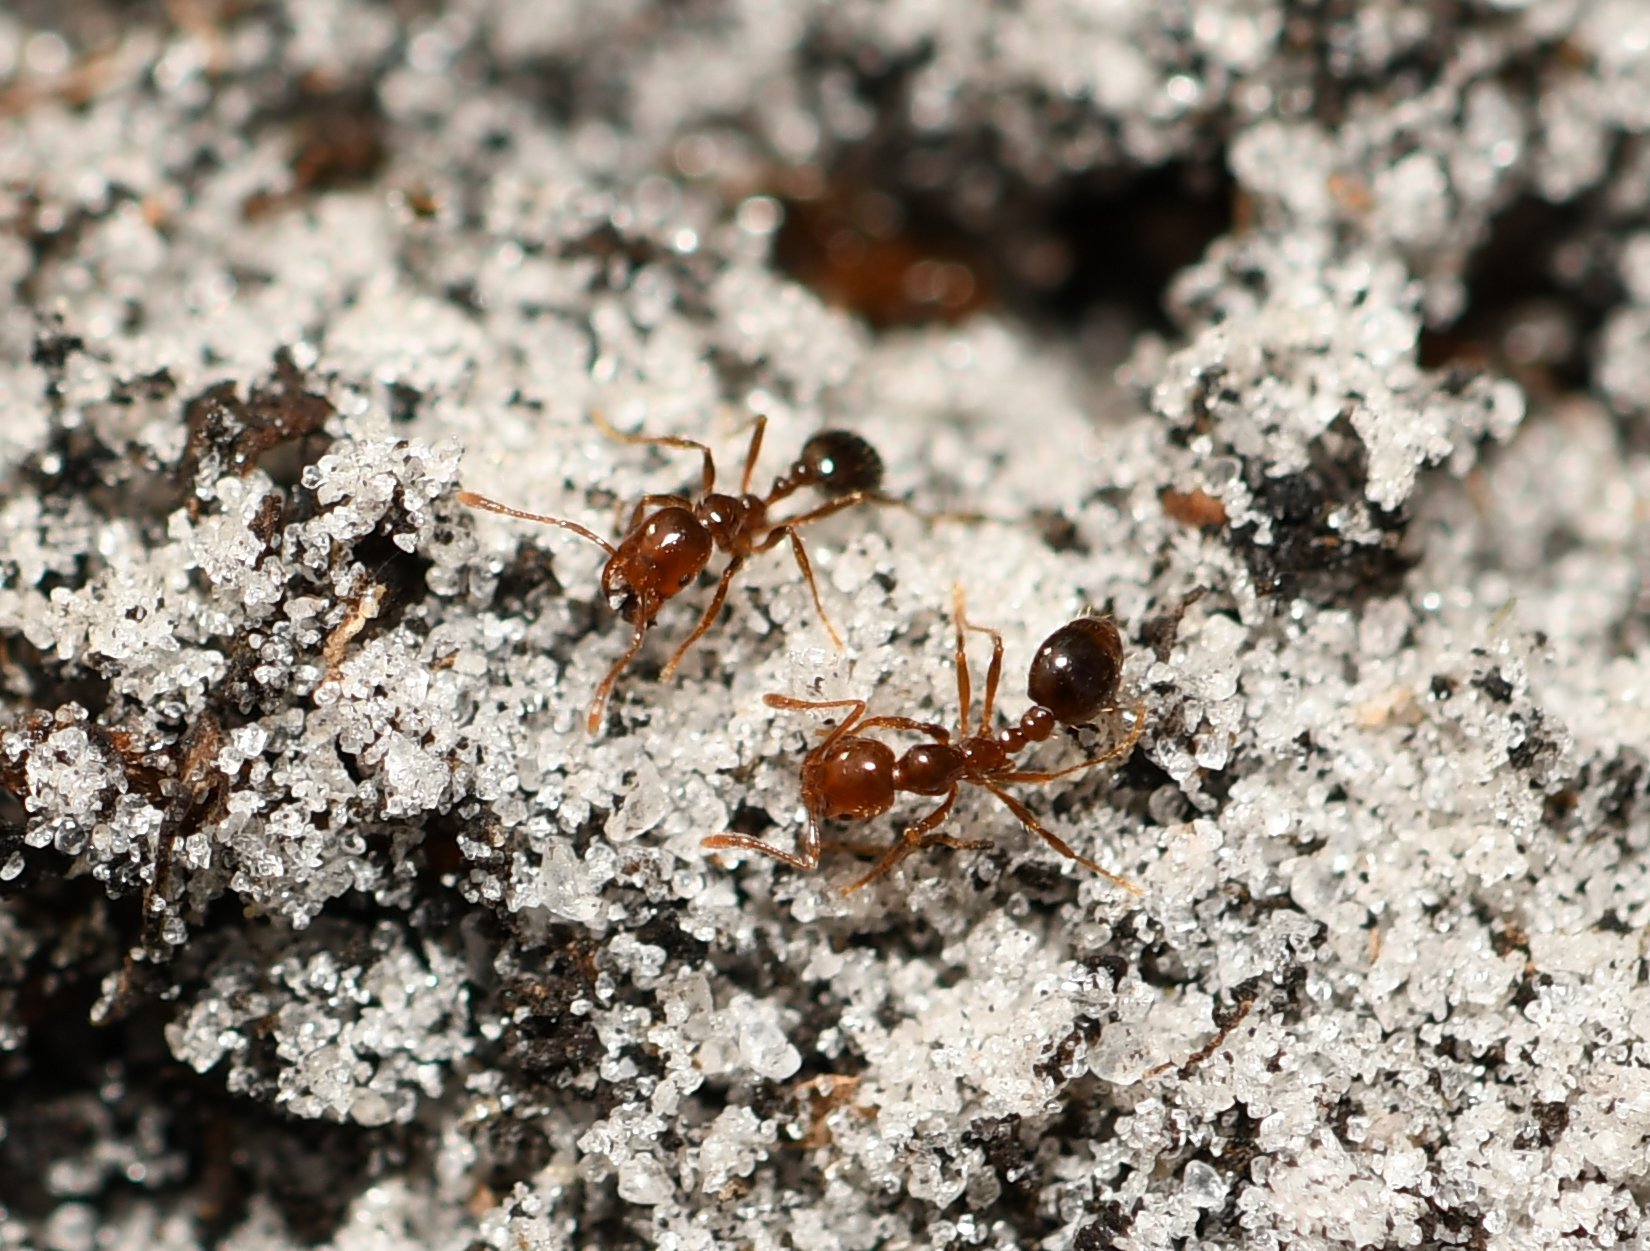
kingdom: Animalia
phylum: Arthropoda
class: Insecta
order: Hymenoptera
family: Formicidae
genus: Solenopsis
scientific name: Solenopsis invicta
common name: Red imported fire ant
